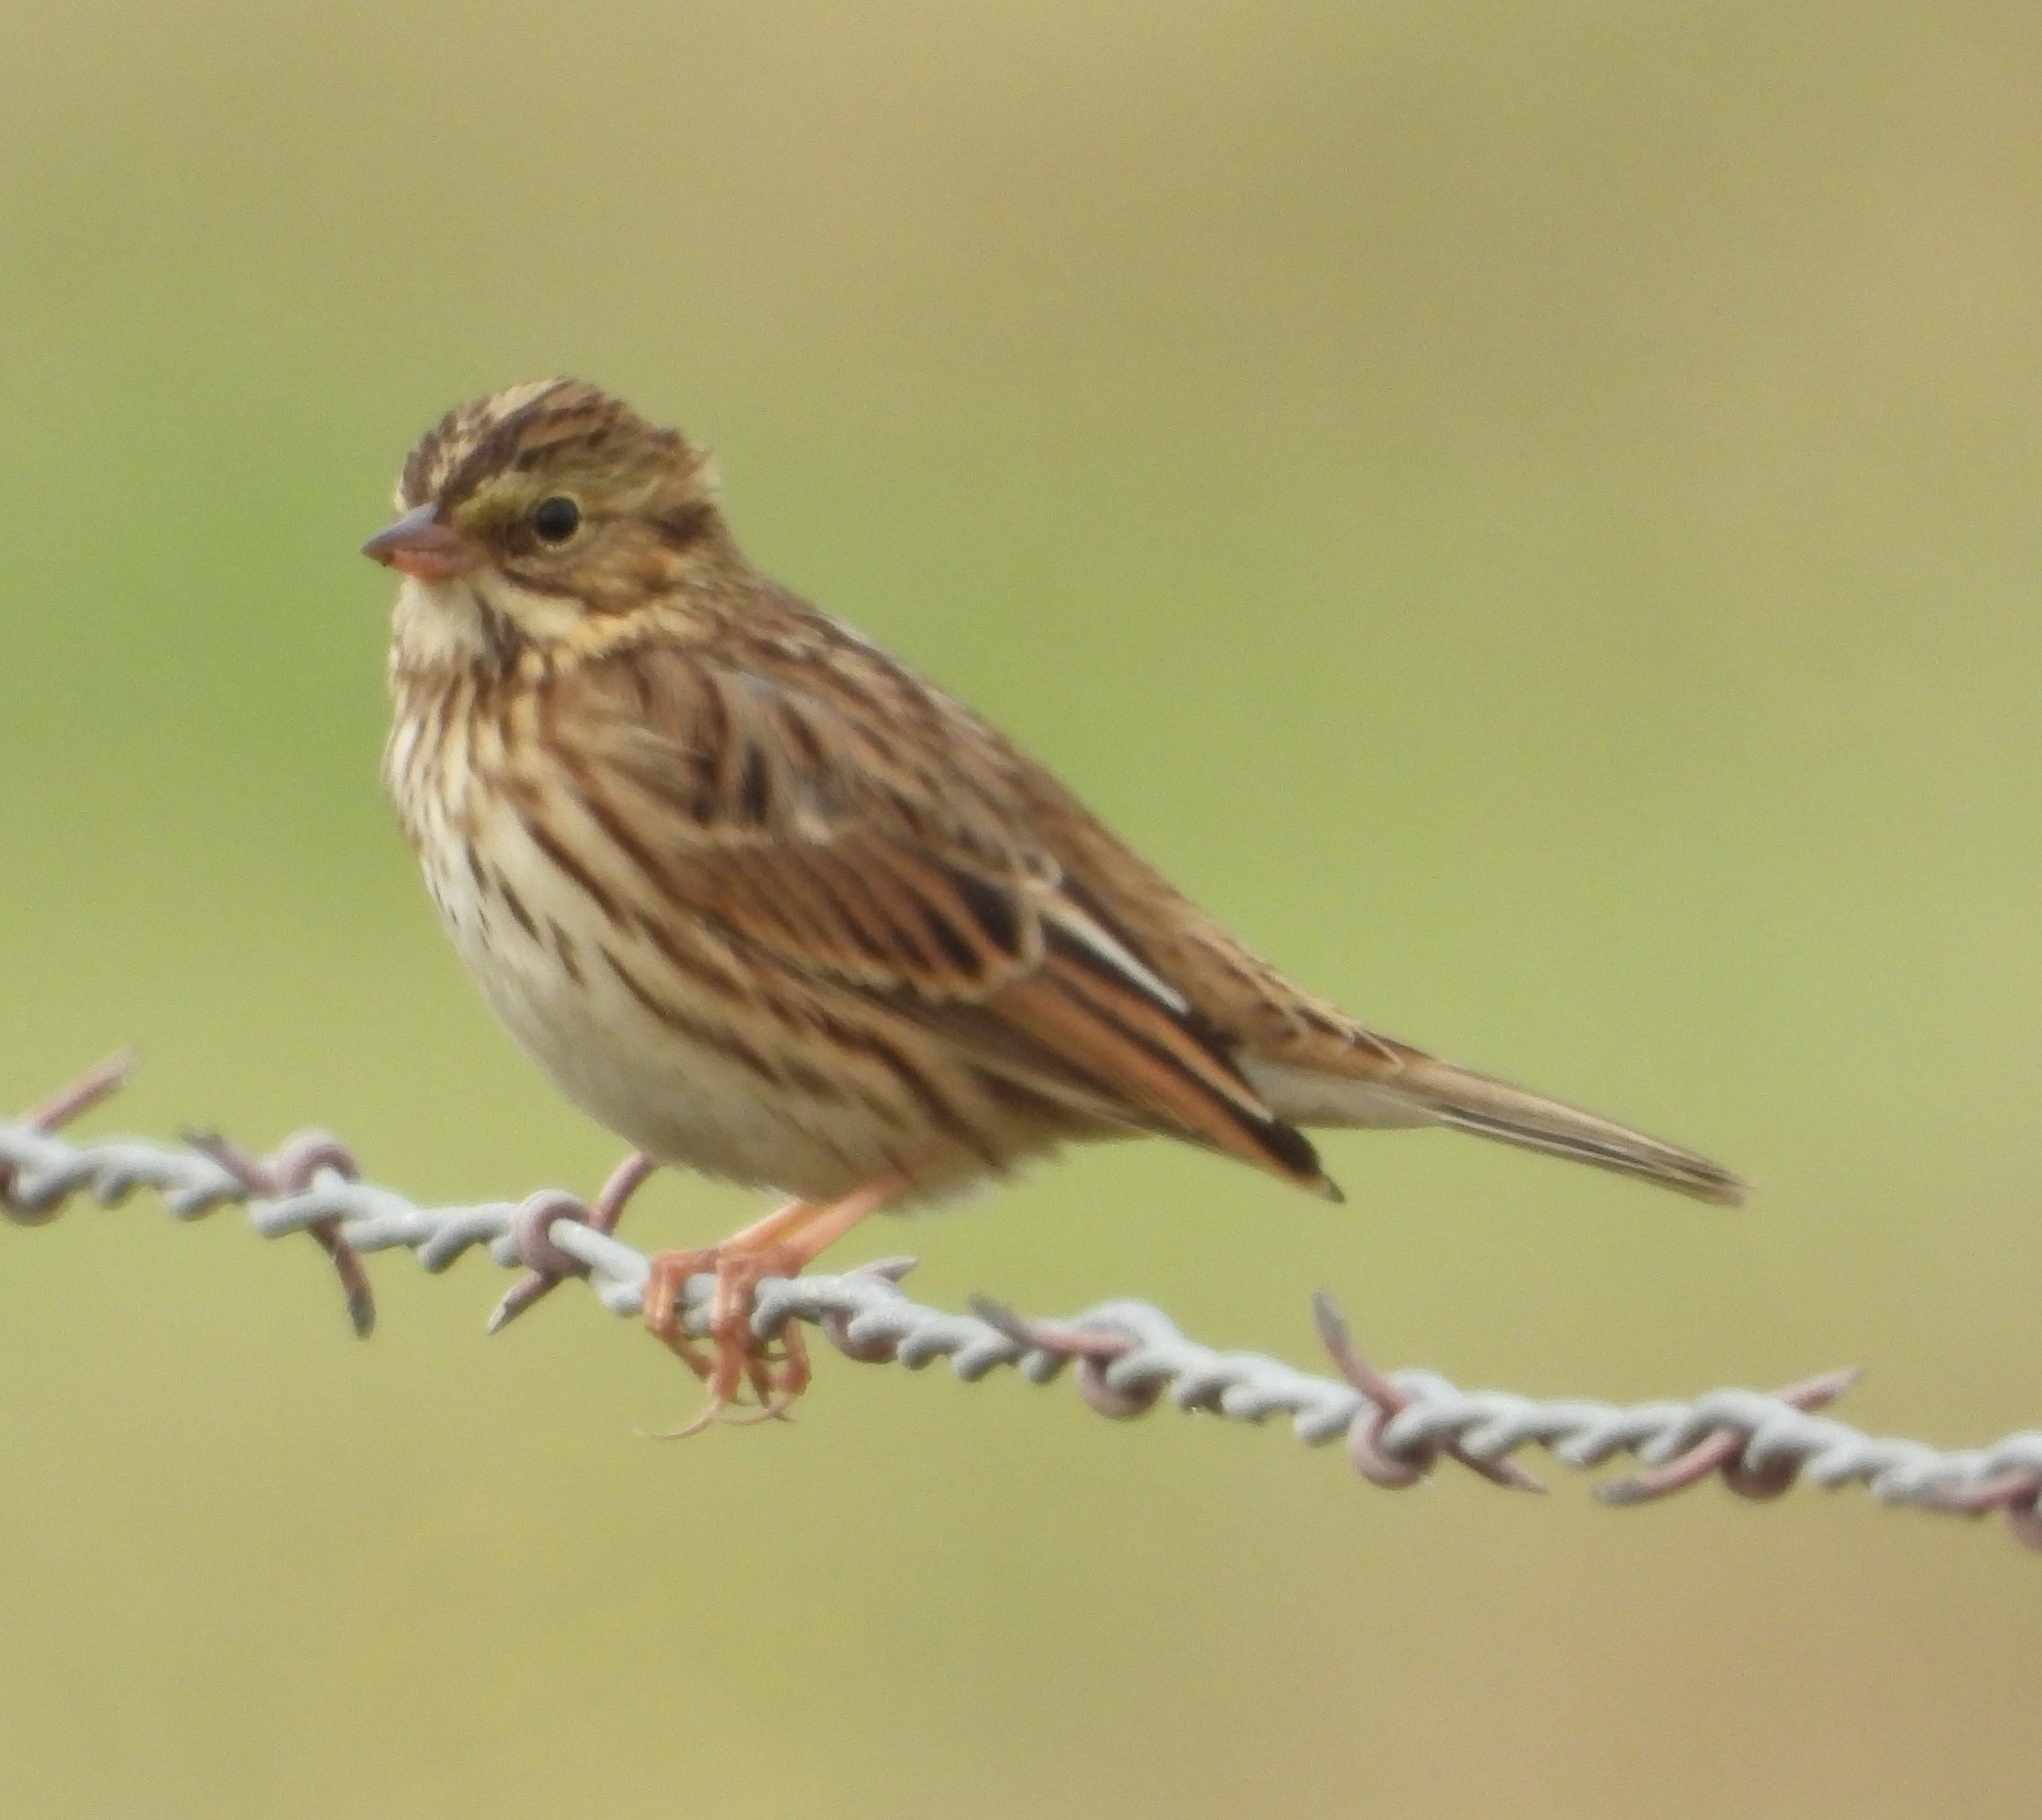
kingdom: Animalia
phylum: Chordata
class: Aves
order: Passeriformes
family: Passerellidae
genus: Passerculus
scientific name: Passerculus sandwichensis
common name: Savannah sparrow
